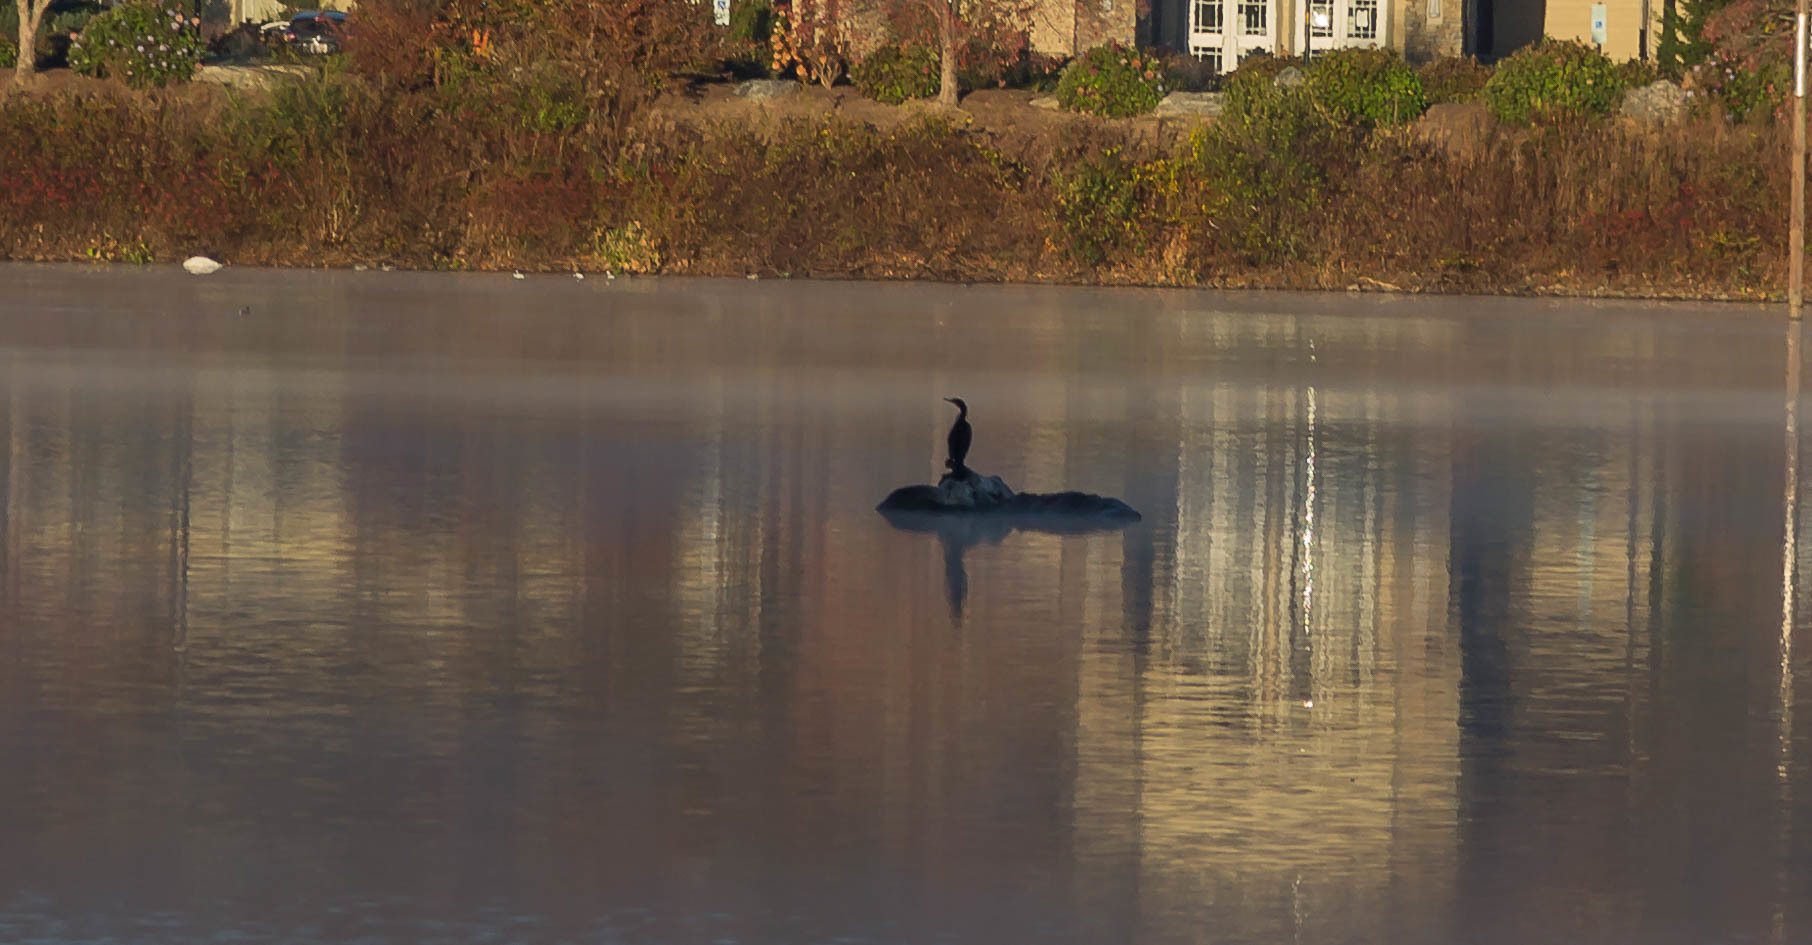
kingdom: Animalia
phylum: Chordata
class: Aves
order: Suliformes
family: Phalacrocoracidae
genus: Phalacrocorax
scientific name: Phalacrocorax auritus
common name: Double-crested cormorant
